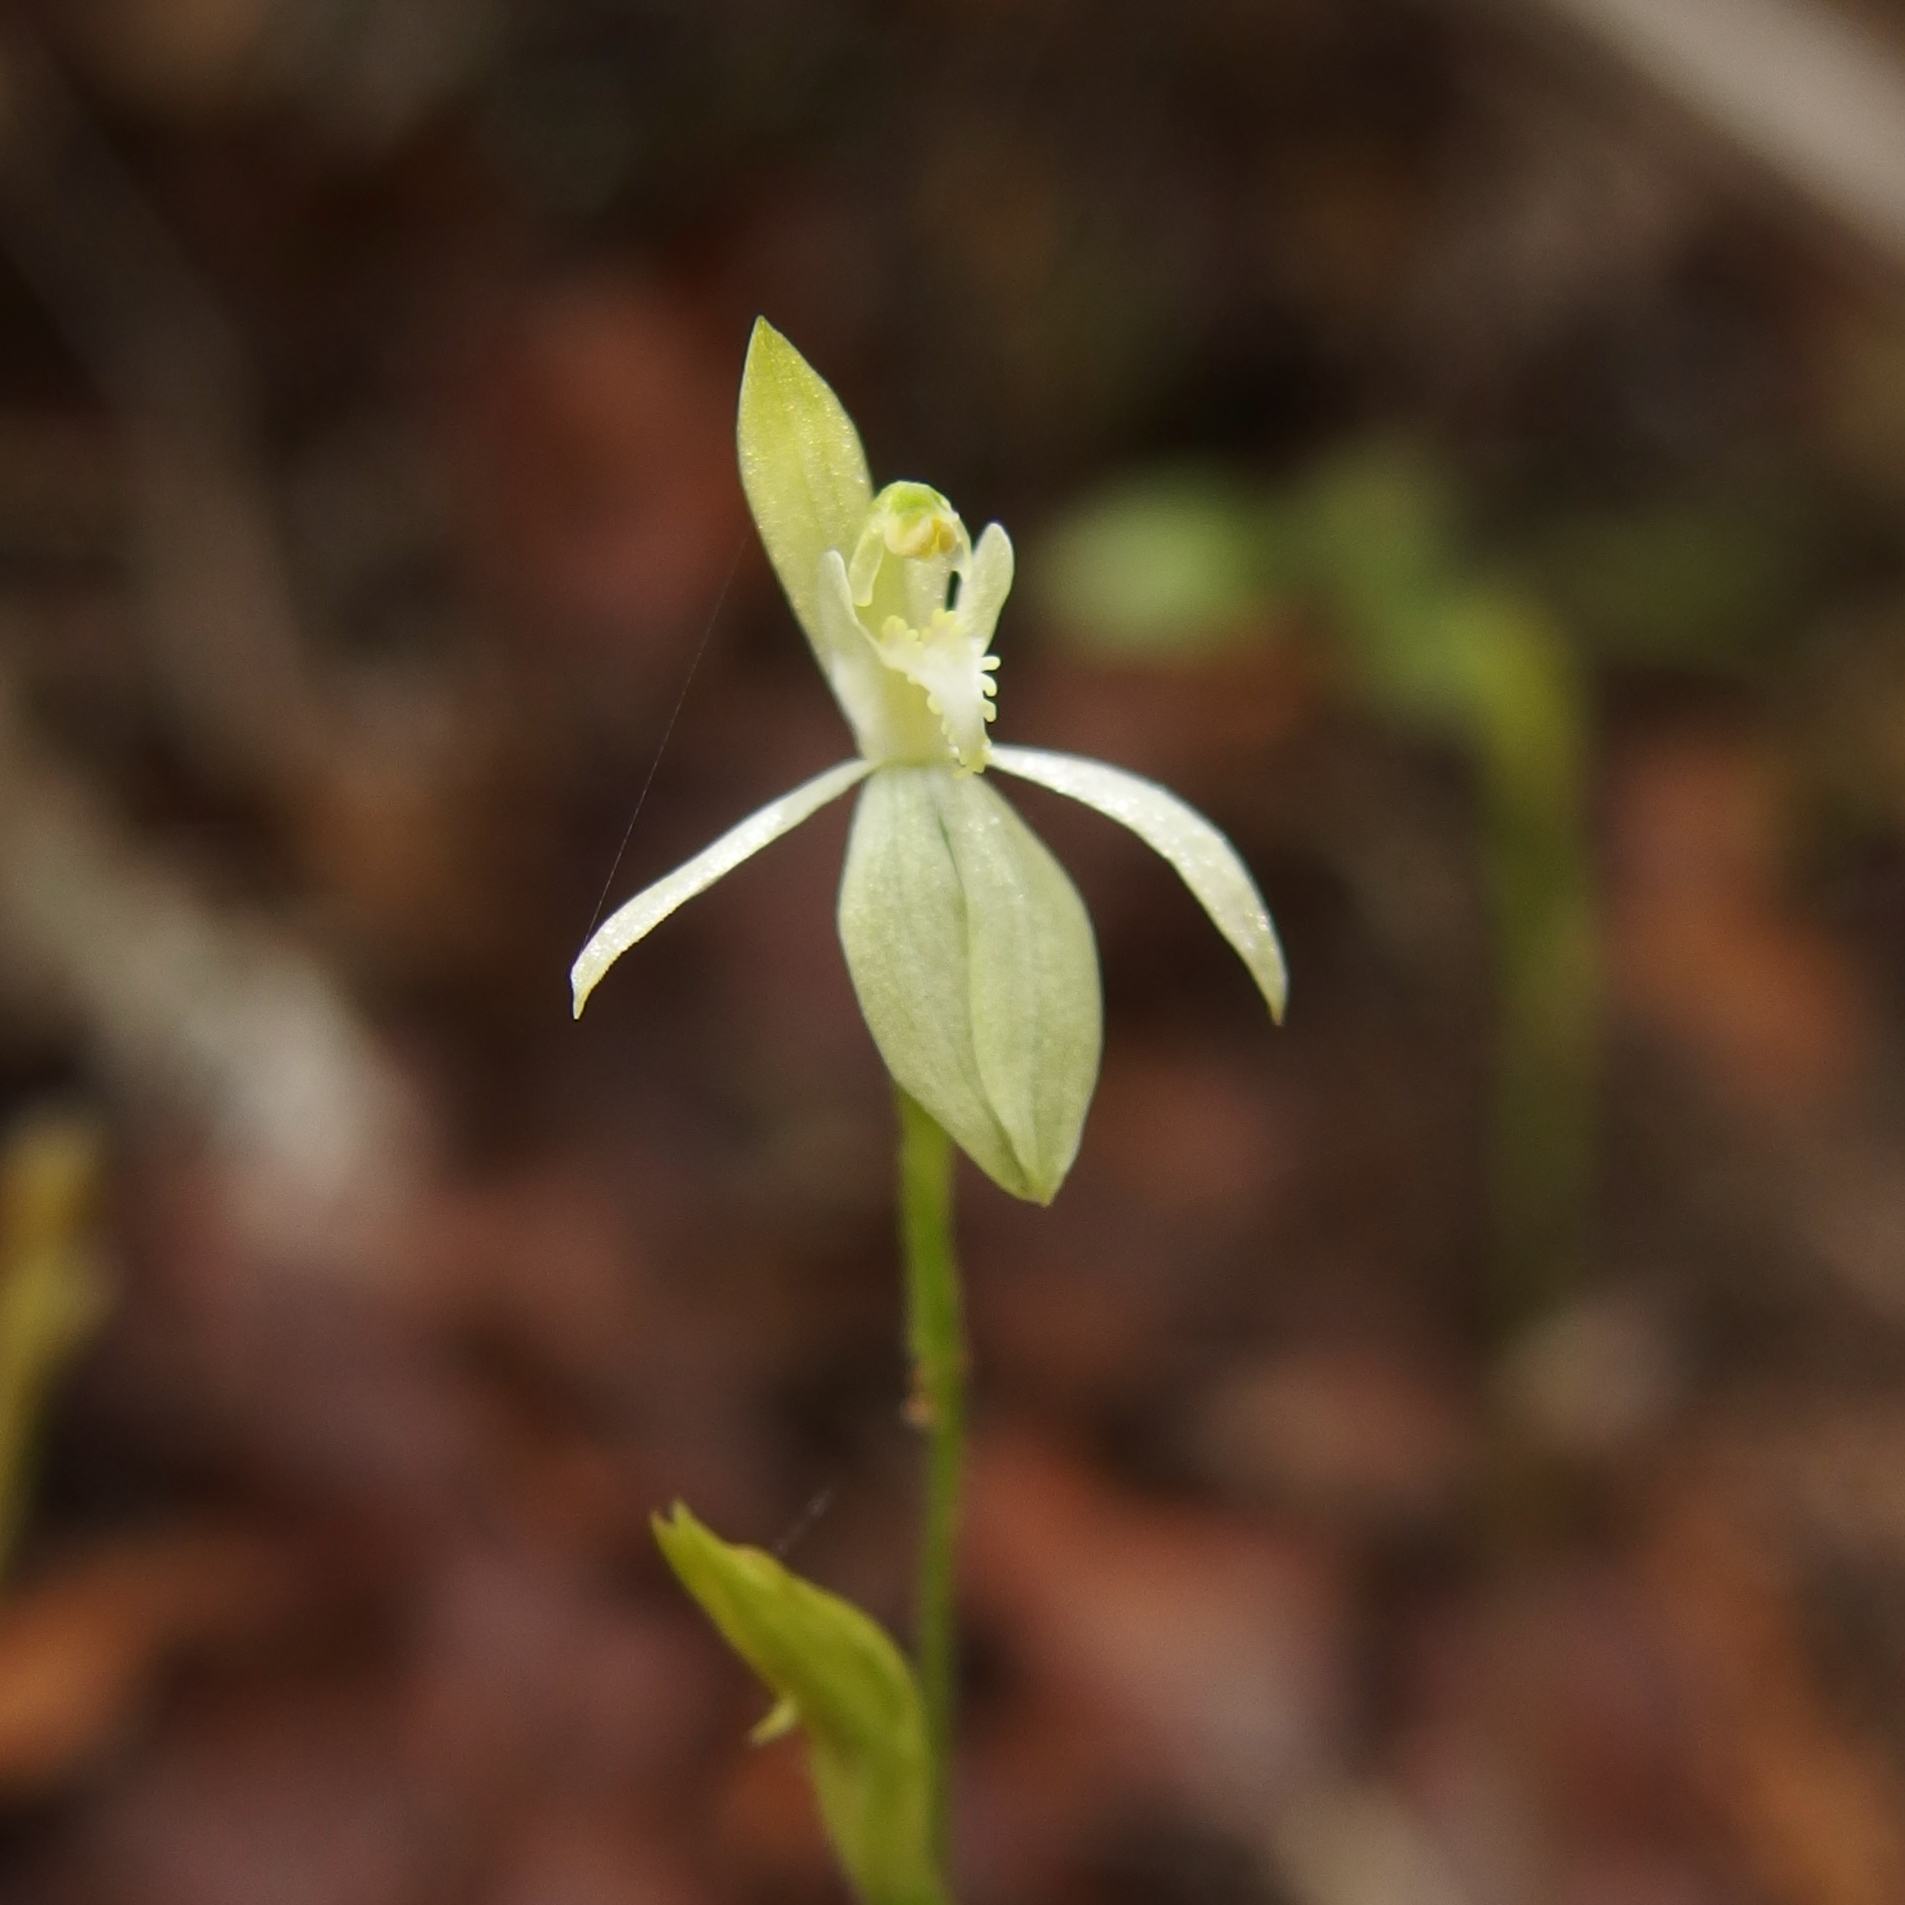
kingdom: Plantae
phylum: Tracheophyta
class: Liliopsida
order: Asparagales
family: Orchidaceae
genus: Caladenia
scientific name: Caladenia nothofageti
